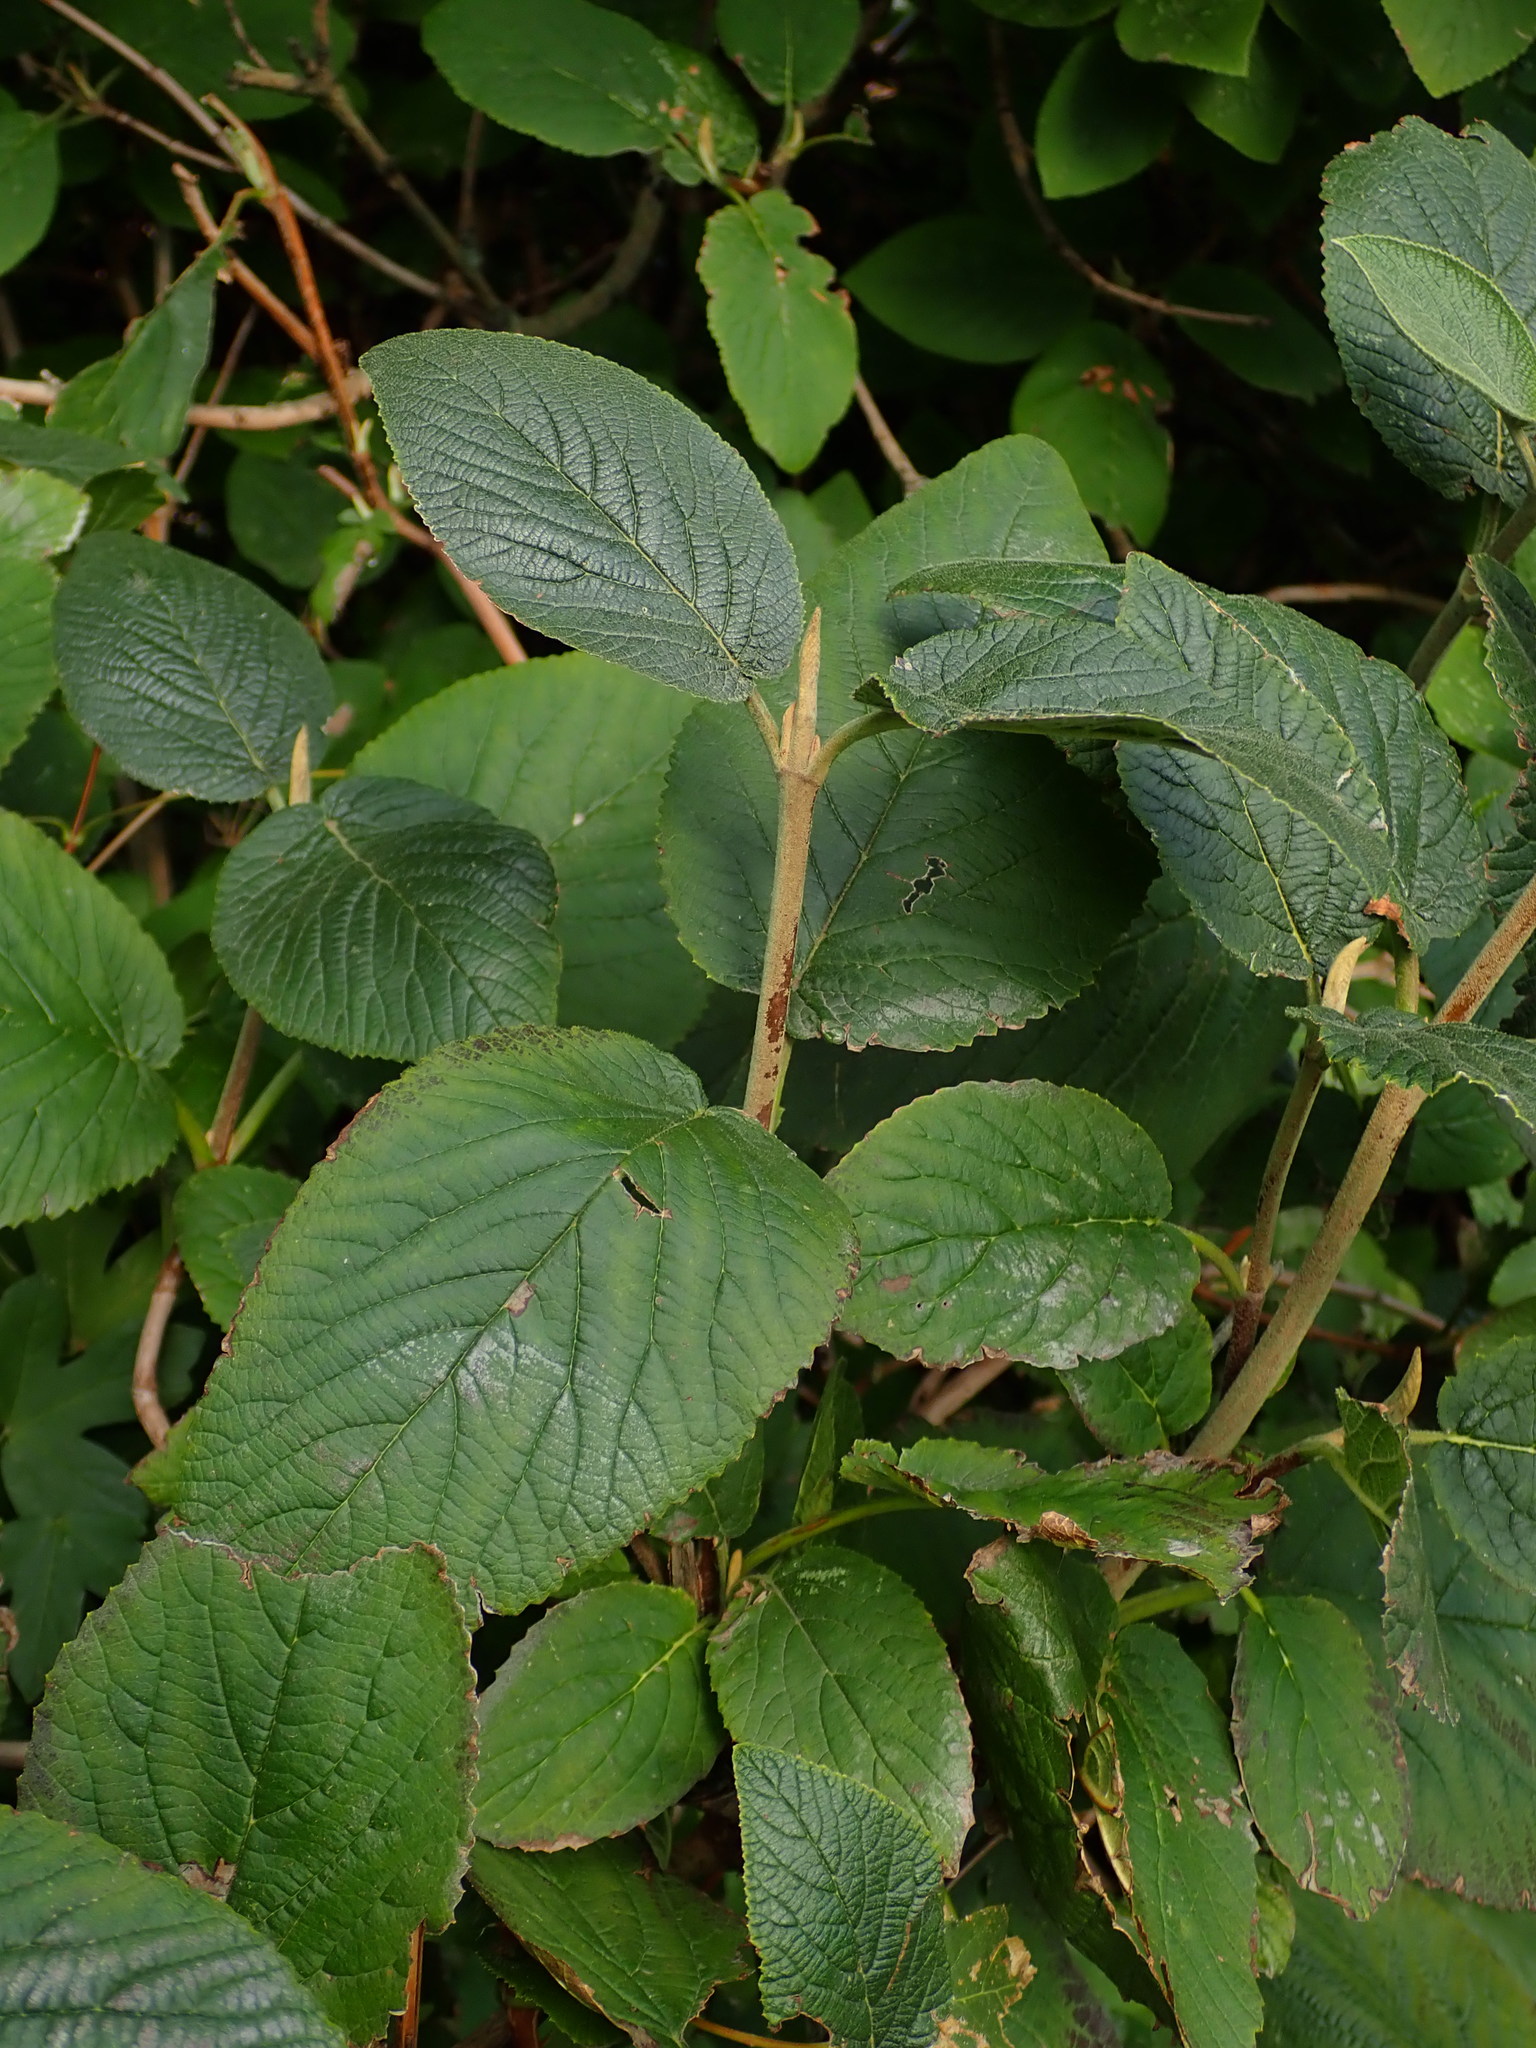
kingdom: Plantae
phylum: Tracheophyta
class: Magnoliopsida
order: Dipsacales
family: Viburnaceae
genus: Viburnum
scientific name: Viburnum lantana
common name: Wayfaring tree
